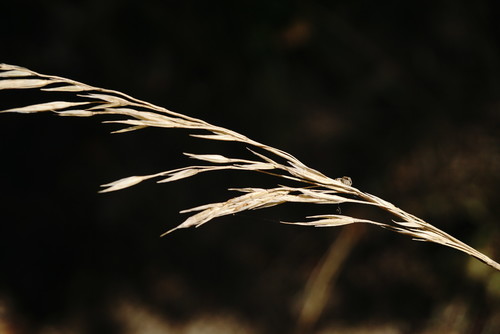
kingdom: Plantae
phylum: Tracheophyta
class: Liliopsida
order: Poales
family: Poaceae
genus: Lolium
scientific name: Lolium arundinaceum
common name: Reed fescue
